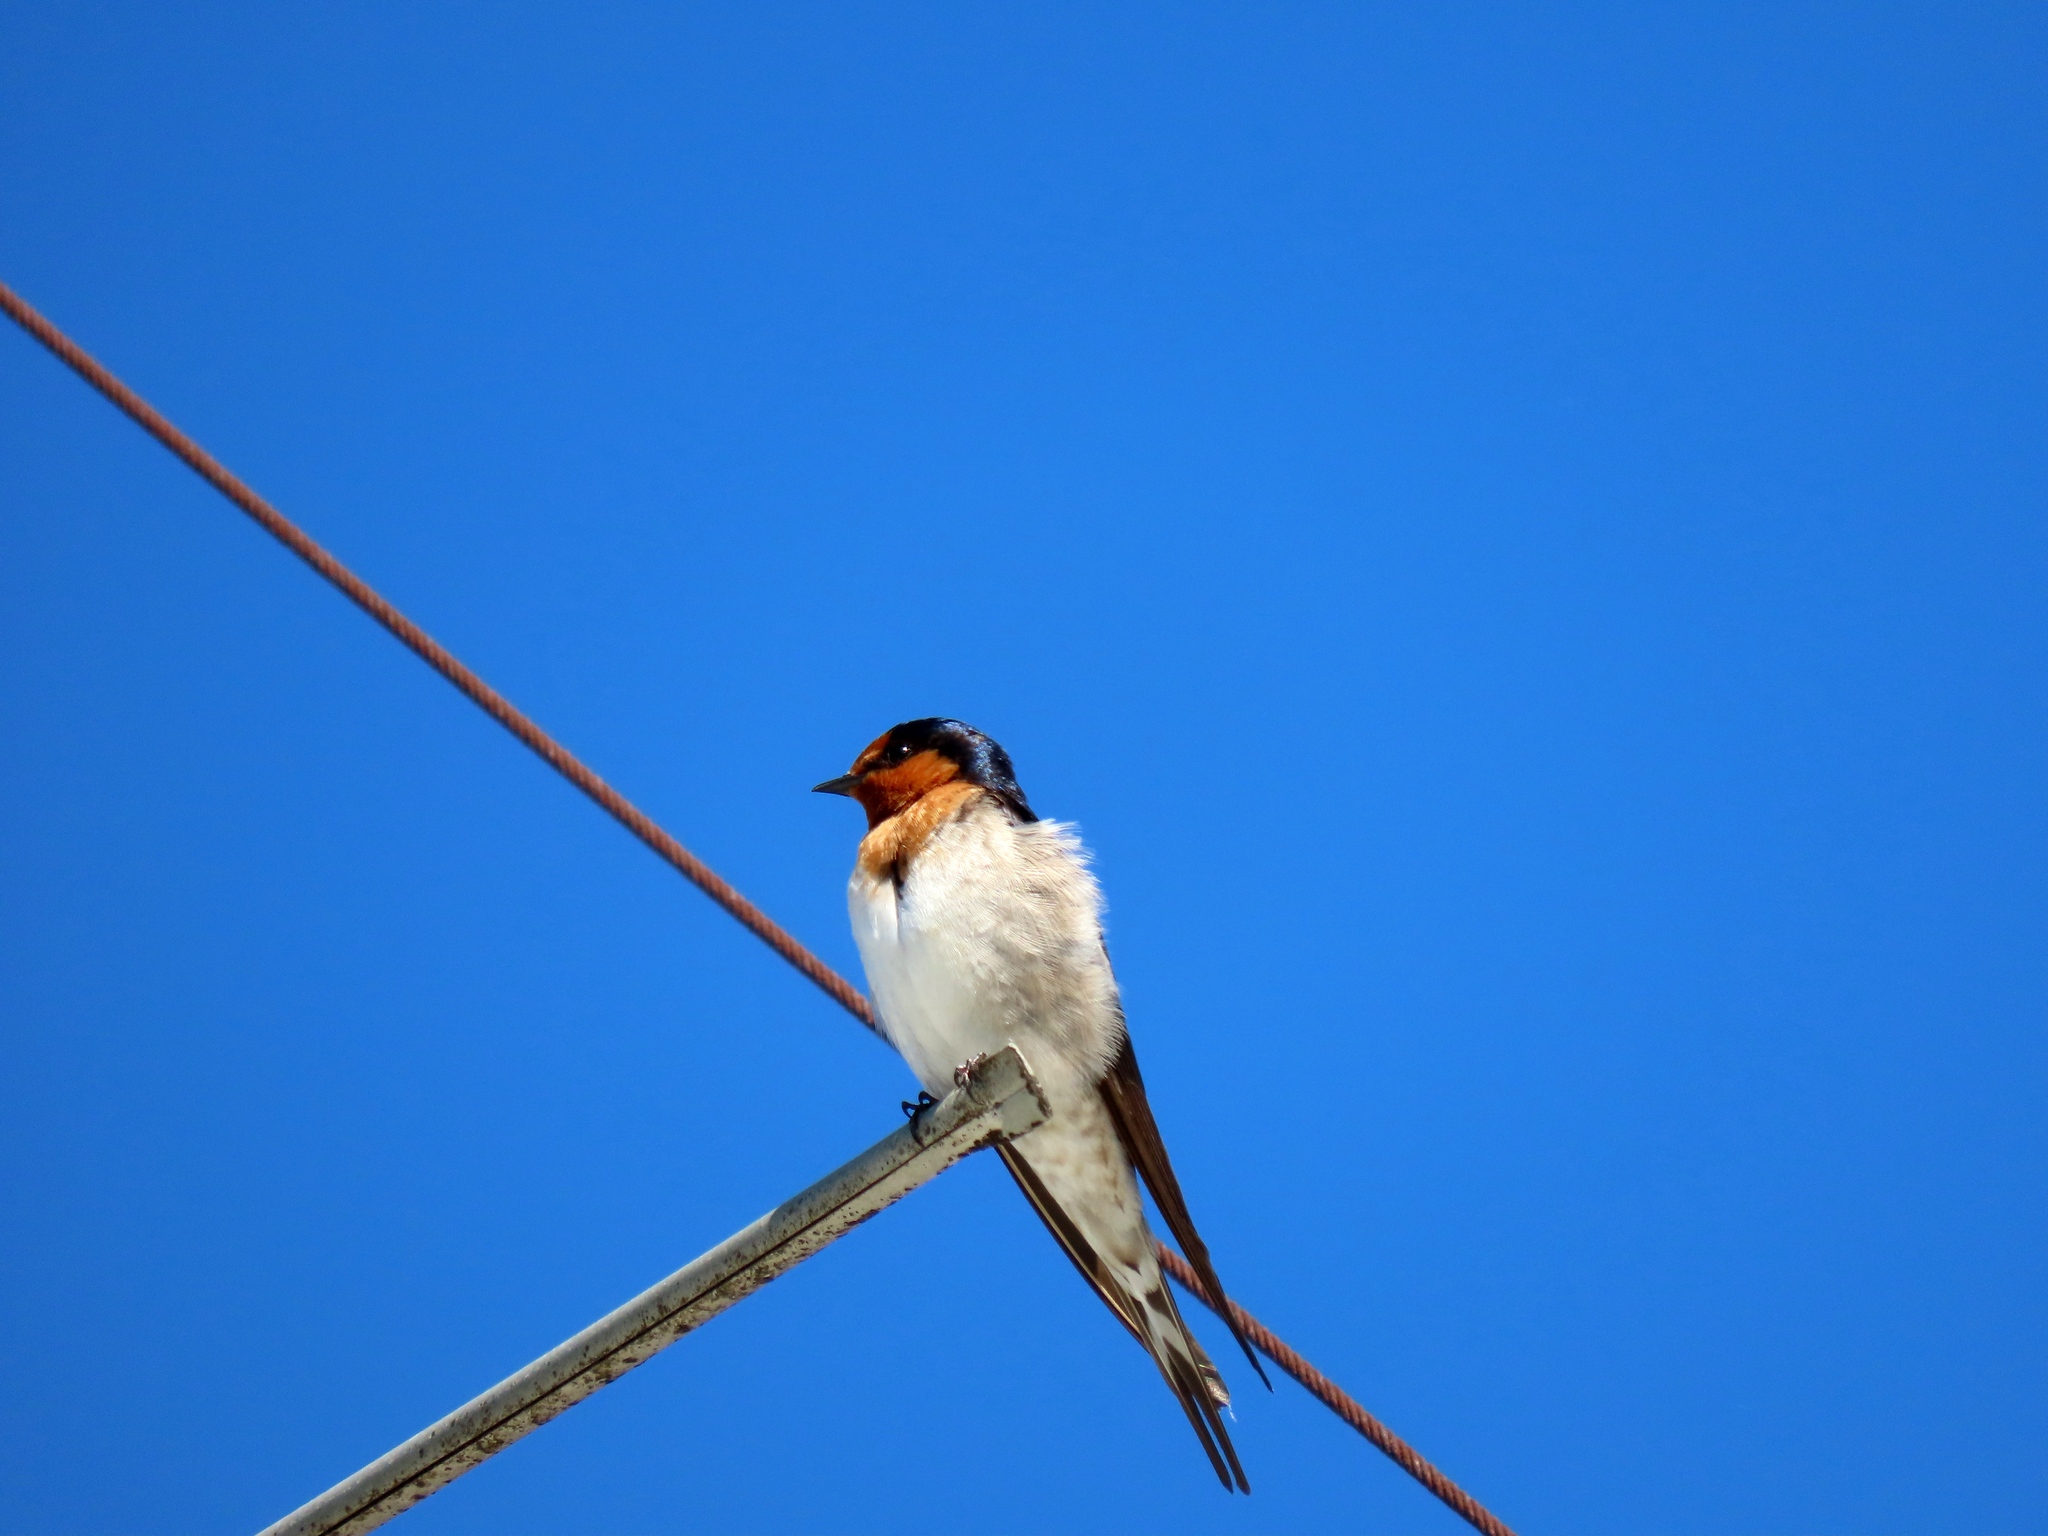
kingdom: Animalia
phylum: Chordata
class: Aves
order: Passeriformes
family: Hirundinidae
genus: Hirundo
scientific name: Hirundo neoxena
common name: Welcome swallow
